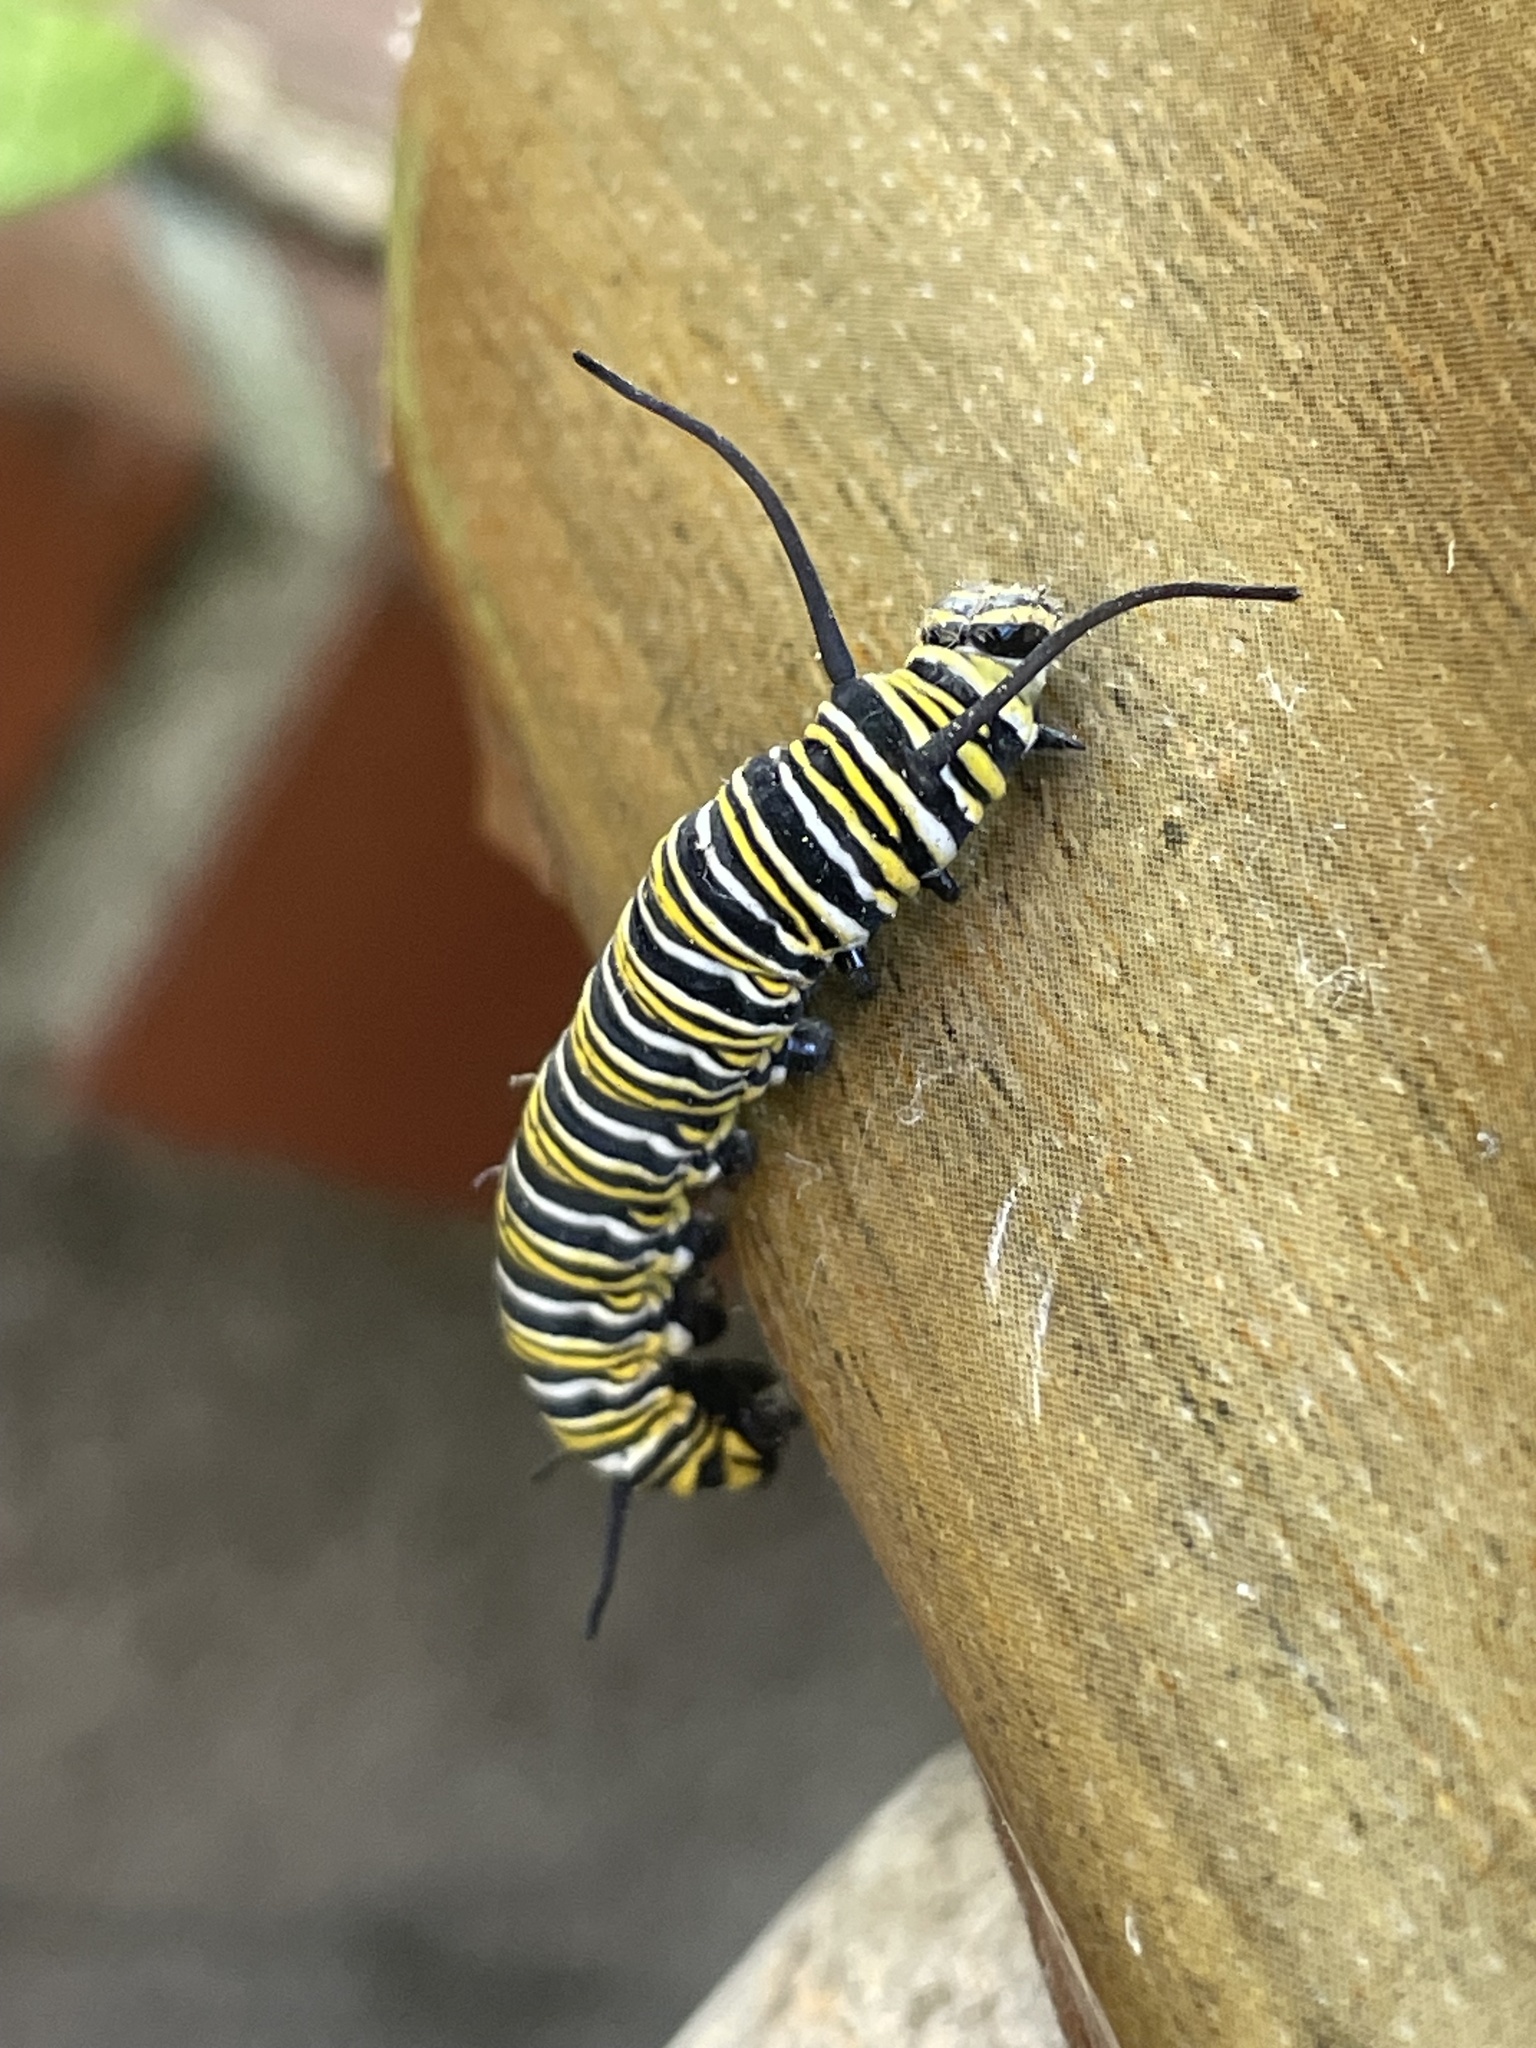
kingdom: Animalia
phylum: Arthropoda
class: Insecta
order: Lepidoptera
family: Nymphalidae
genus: Danaus
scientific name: Danaus plexippus
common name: Monarch
